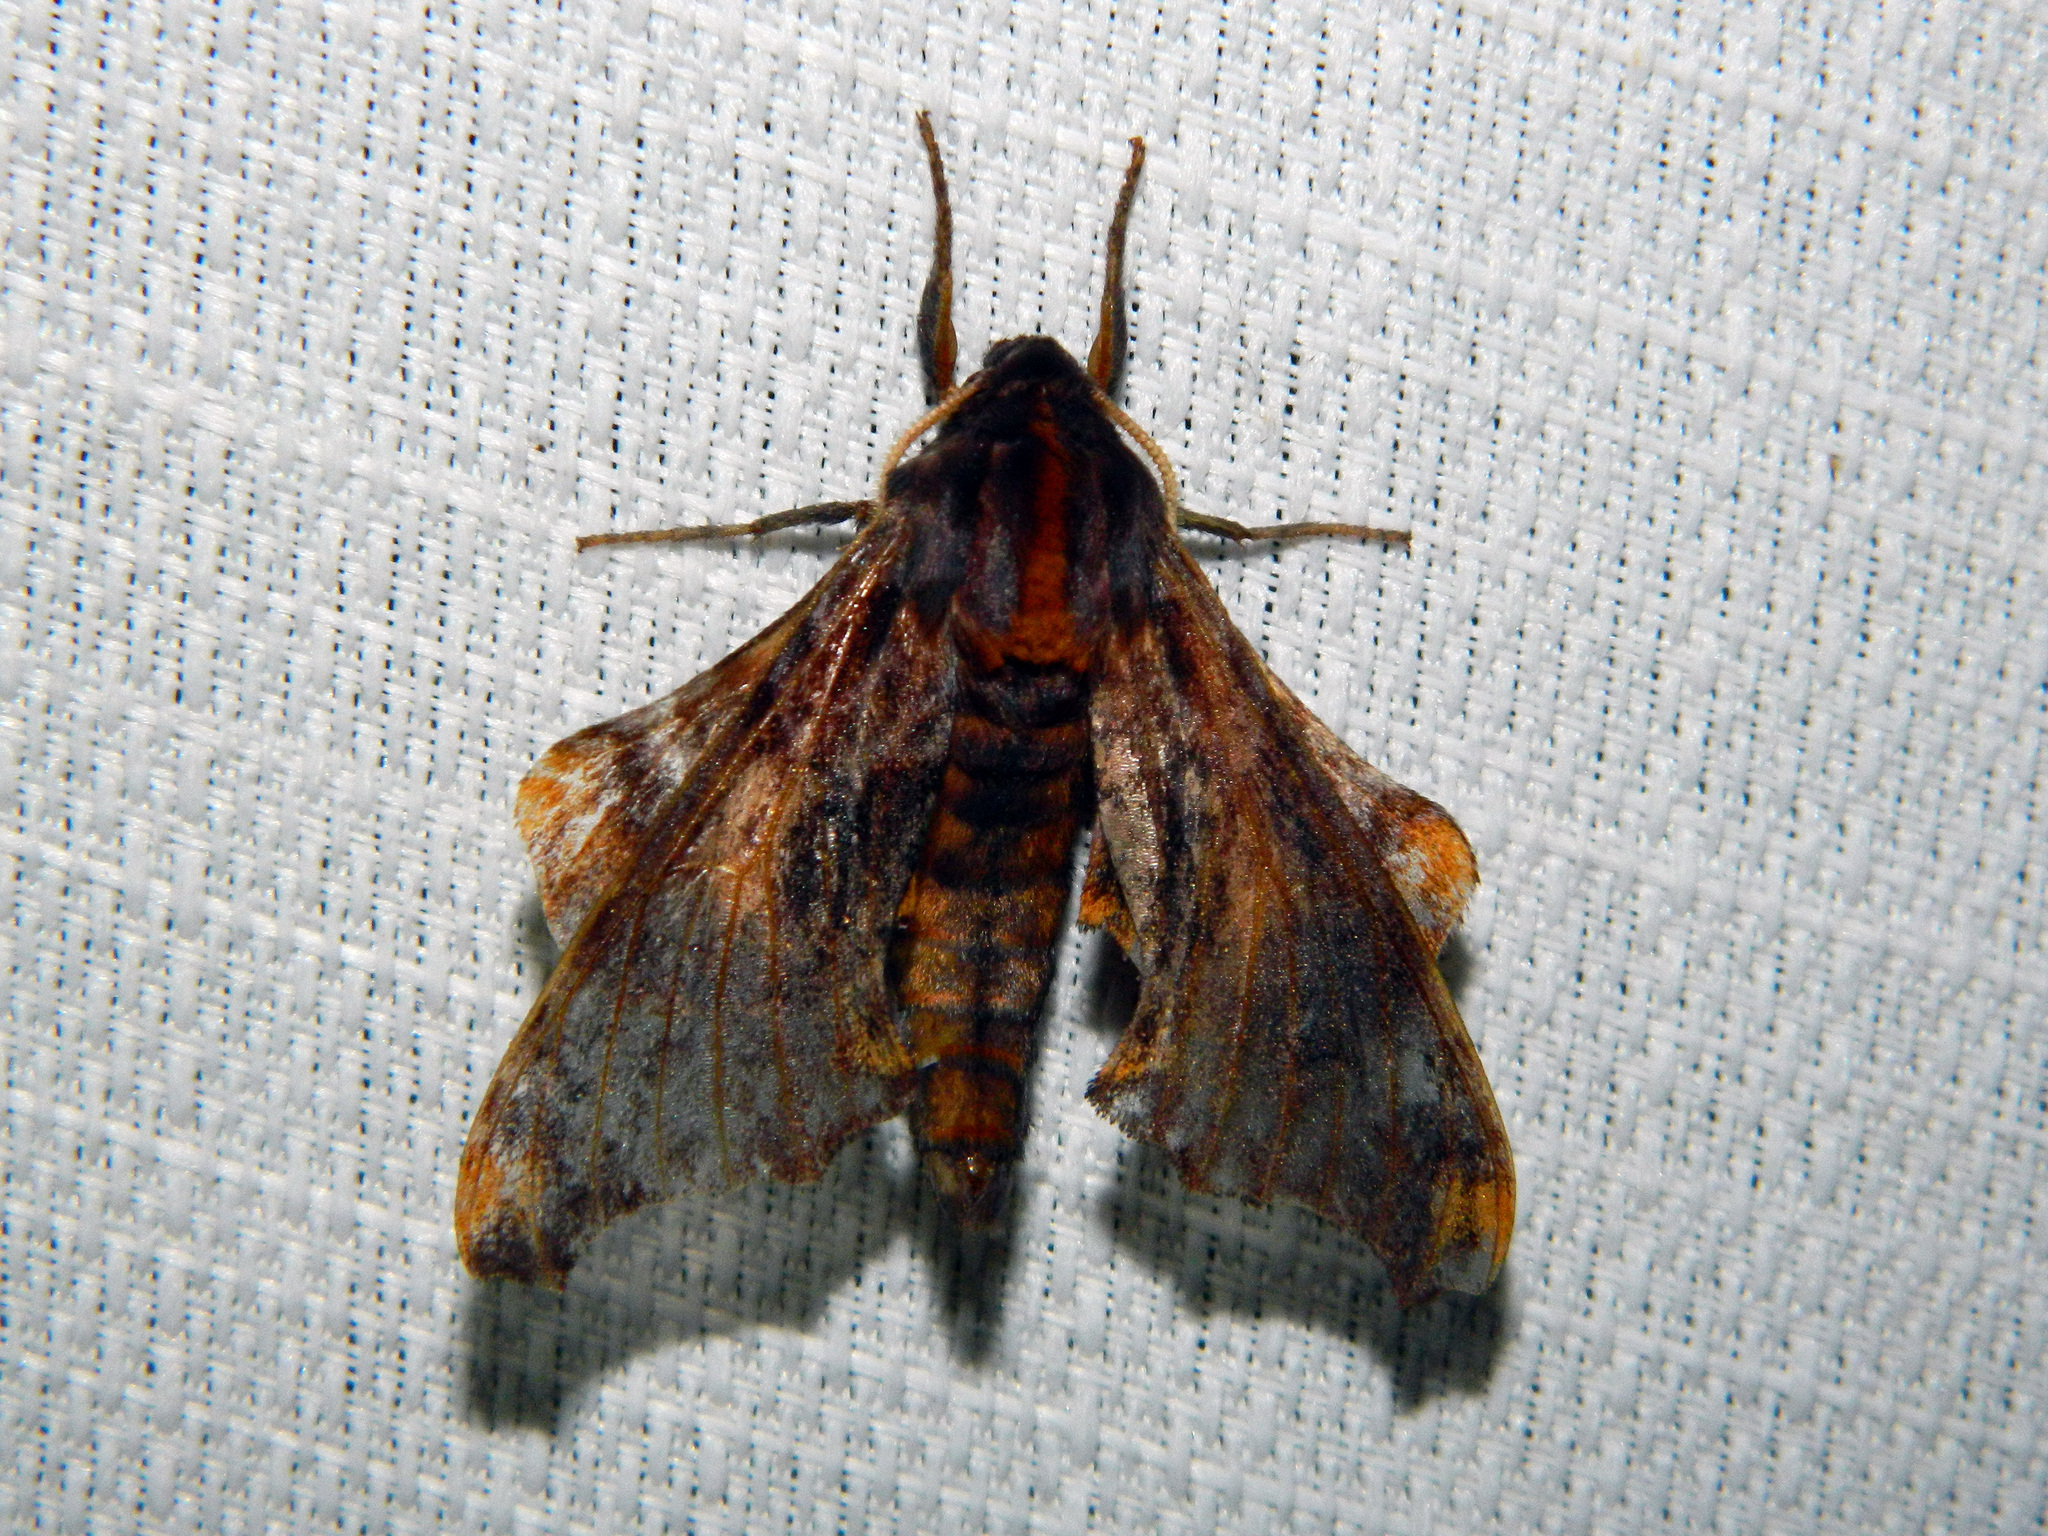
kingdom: Animalia
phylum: Arthropoda
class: Insecta
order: Lepidoptera
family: Sphingidae
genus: Paonias
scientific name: Paonias myops
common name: Small-eyed sphinx
